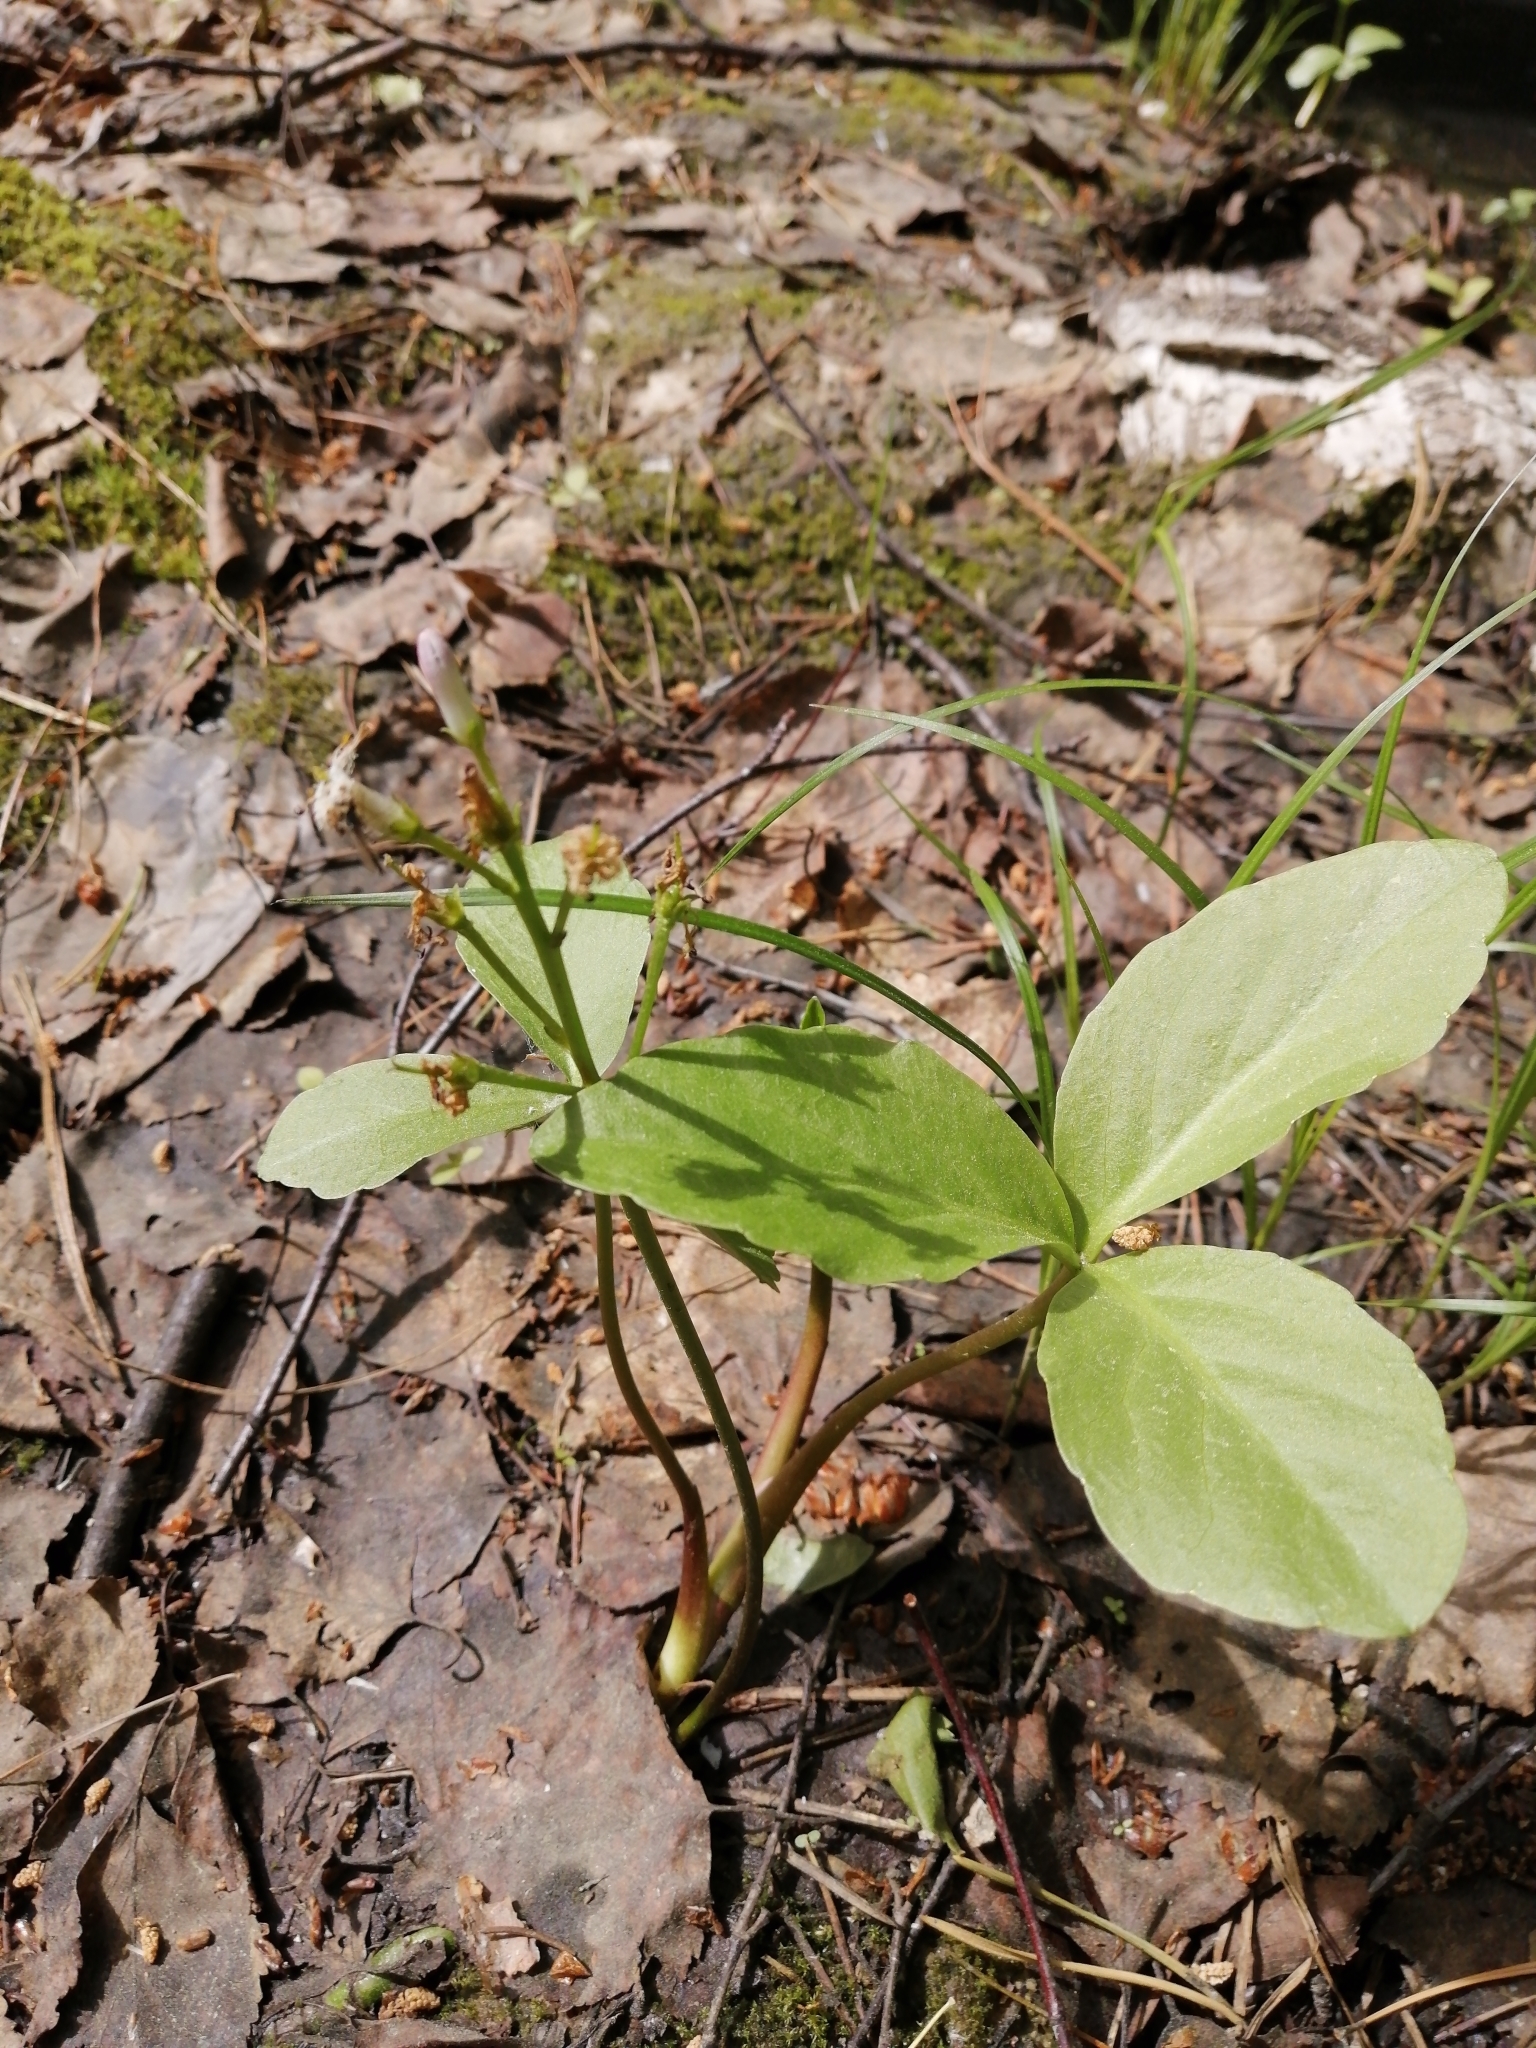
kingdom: Plantae
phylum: Tracheophyta
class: Magnoliopsida
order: Asterales
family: Menyanthaceae
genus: Menyanthes
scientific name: Menyanthes trifoliata
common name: Bogbean
